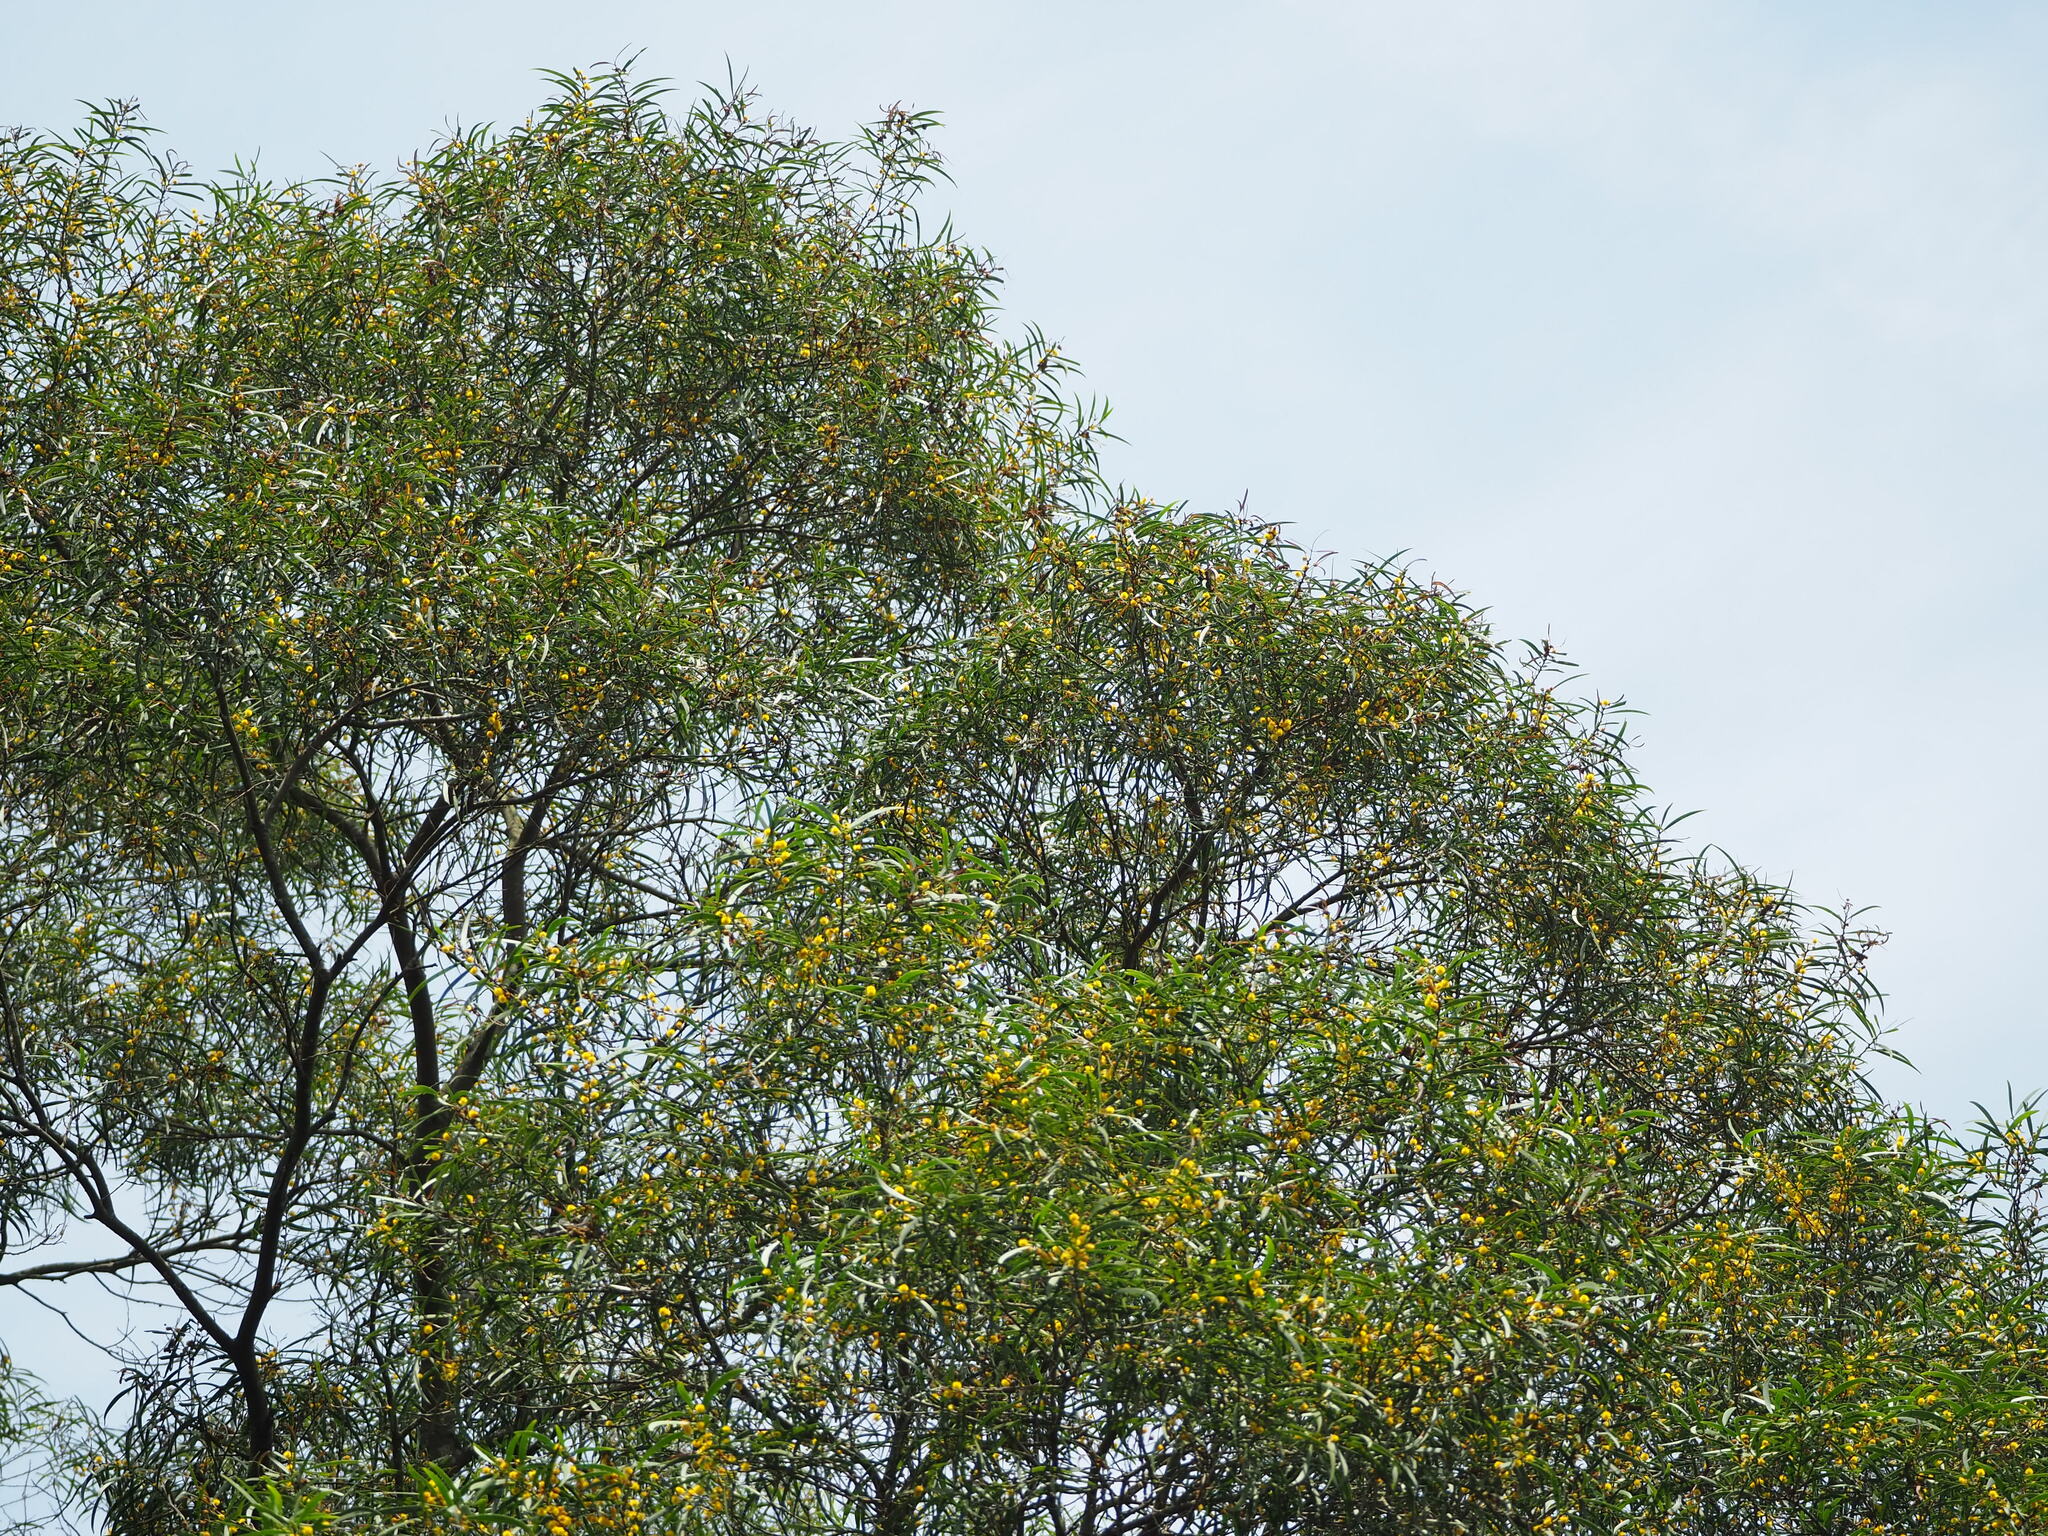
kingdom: Plantae
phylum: Tracheophyta
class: Magnoliopsida
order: Fabales
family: Fabaceae
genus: Acacia
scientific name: Acacia confusa
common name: Formosan koa
